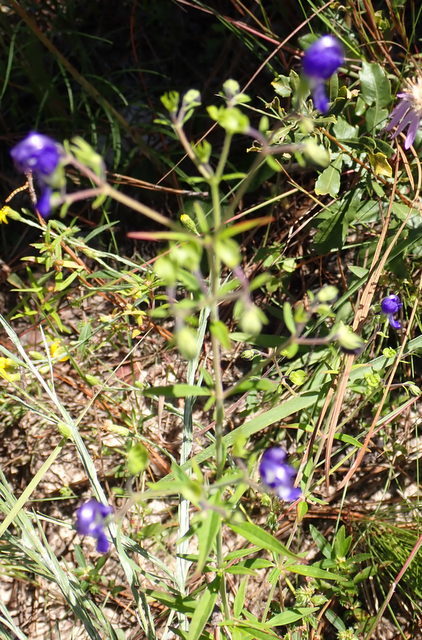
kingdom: Plantae
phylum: Tracheophyta
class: Magnoliopsida
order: Lamiales
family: Lamiaceae
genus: Trichostema
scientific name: Trichostema setaceum
